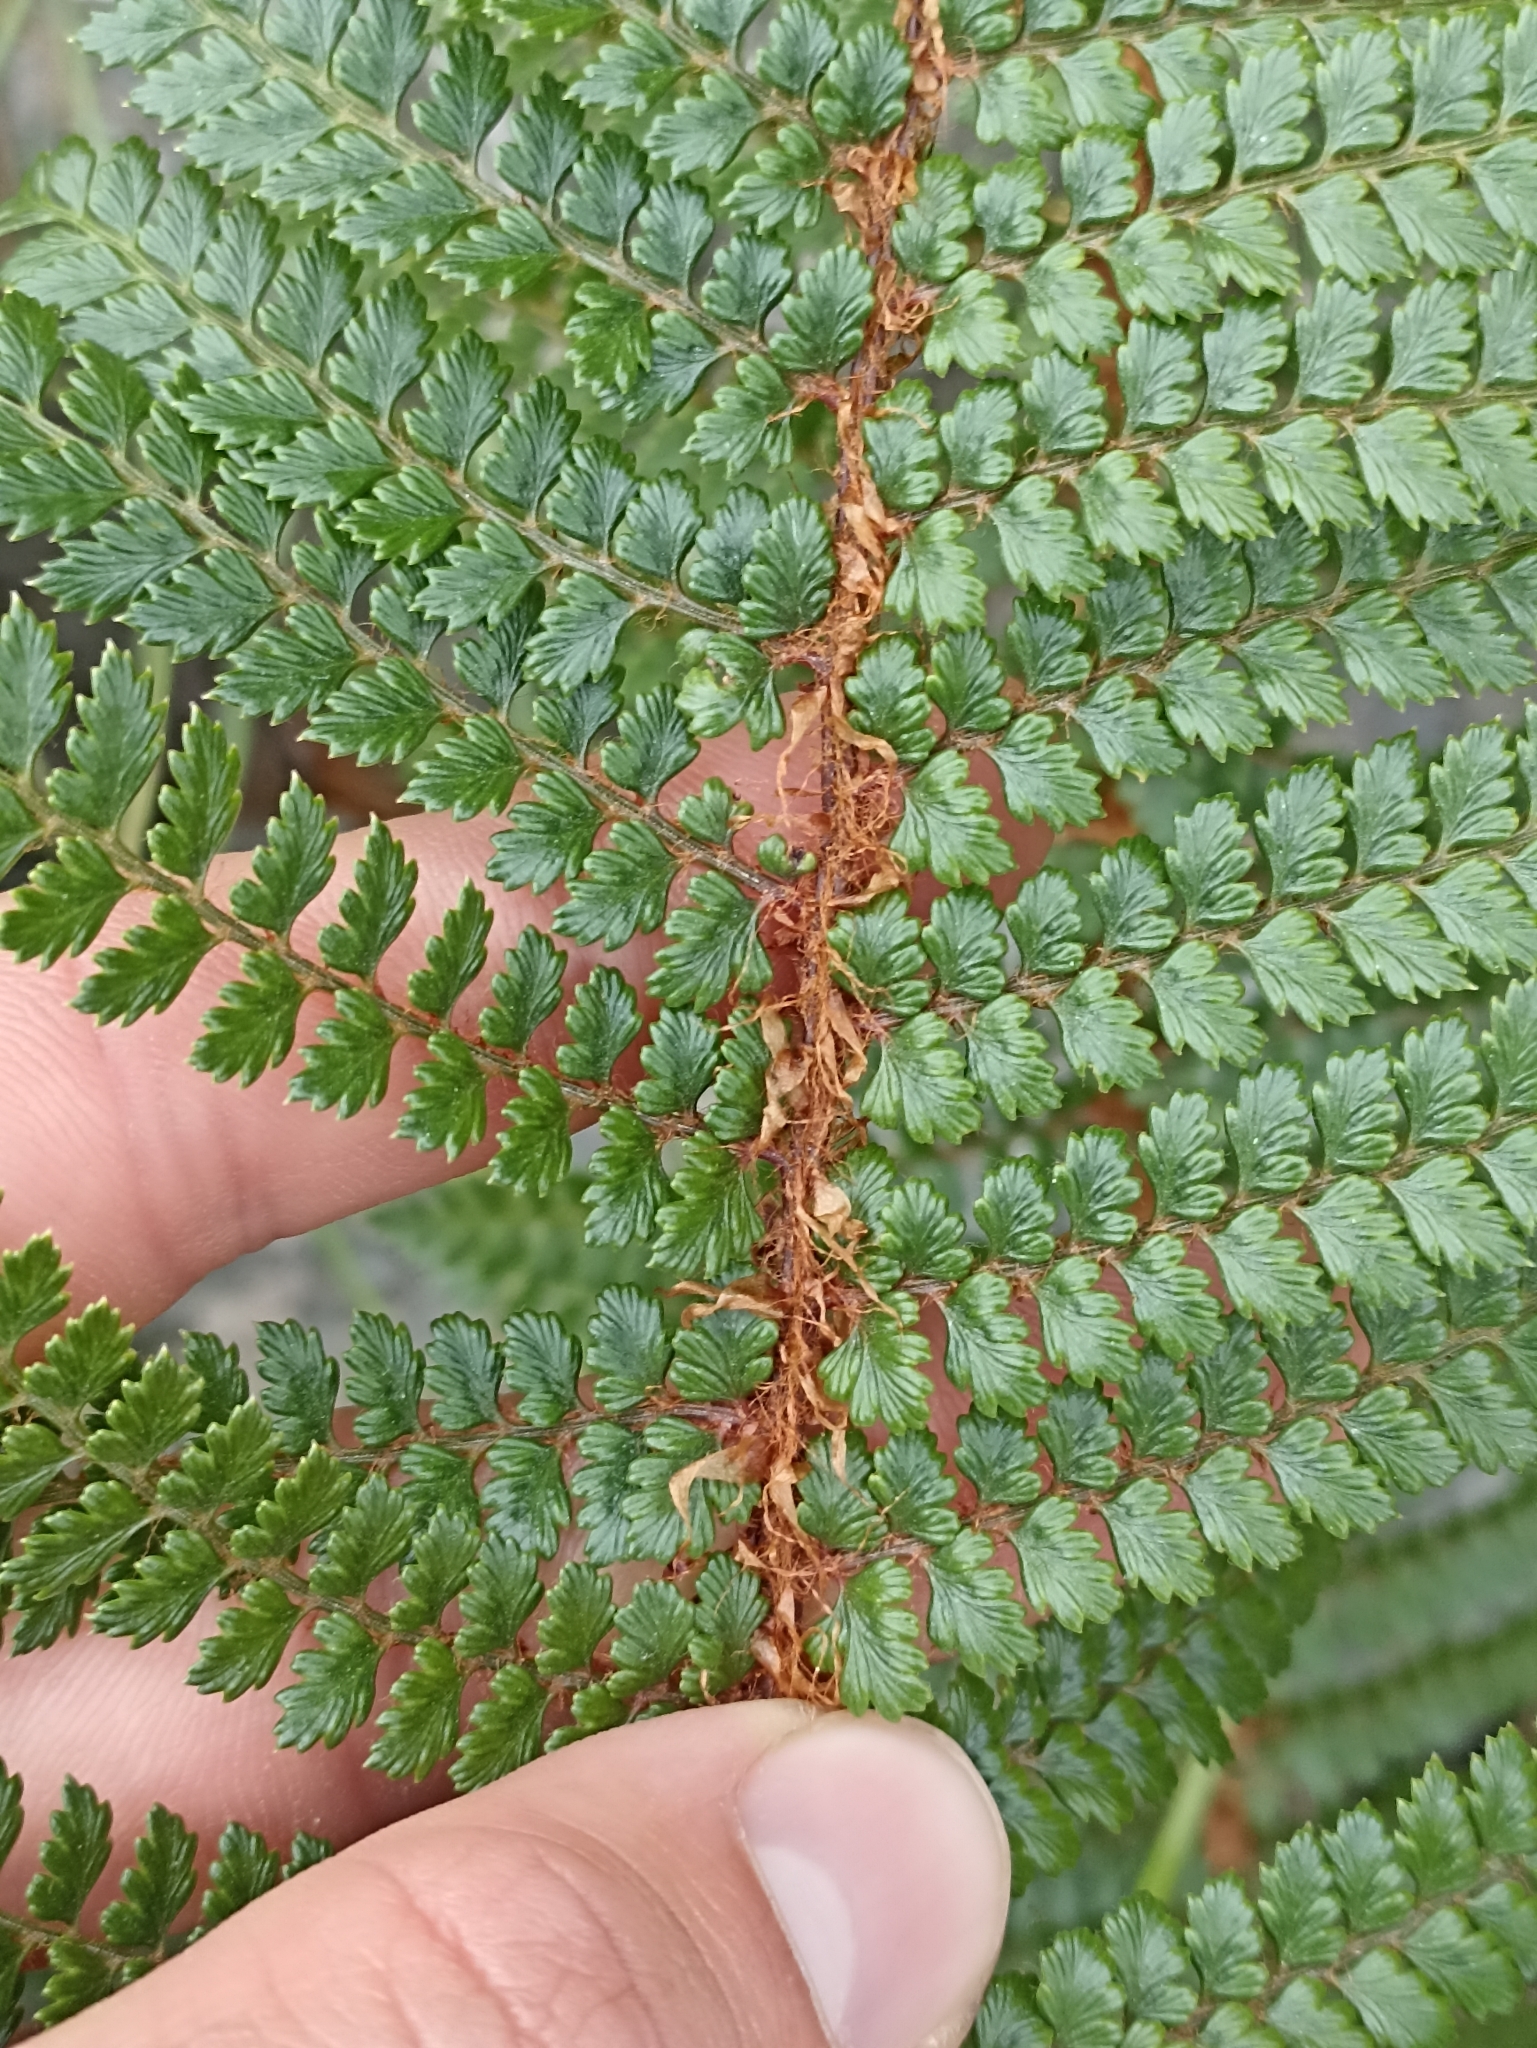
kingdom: Plantae
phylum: Tracheophyta
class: Polypodiopsida
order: Polypodiales
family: Dryopteridaceae
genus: Polystichum
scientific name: Polystichum vestitum
